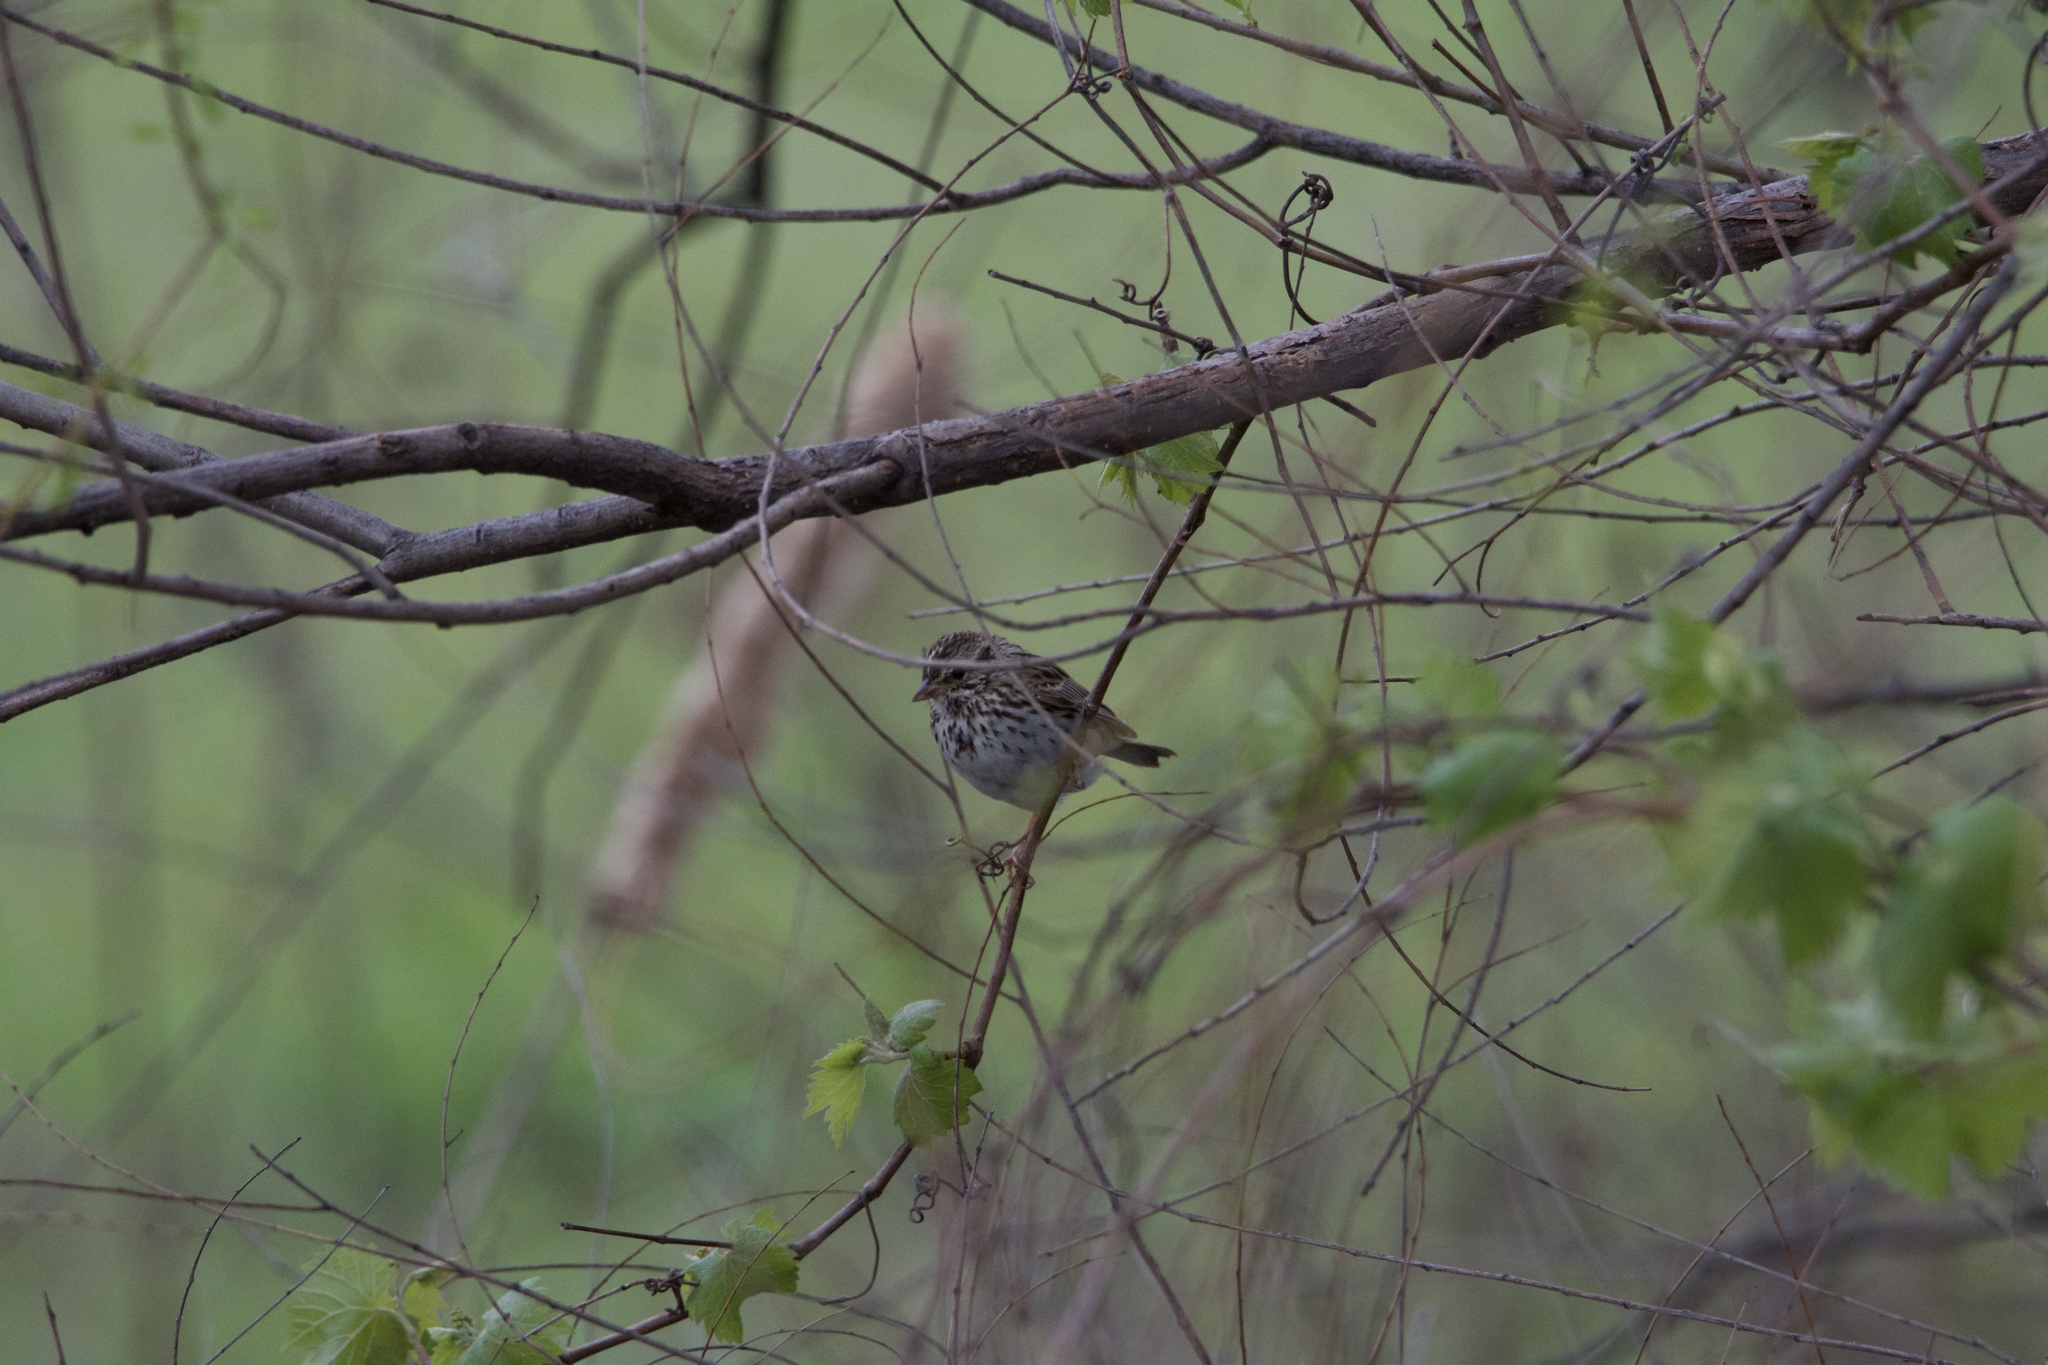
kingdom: Animalia
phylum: Chordata
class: Aves
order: Passeriformes
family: Passerellidae
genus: Passerculus
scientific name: Passerculus sandwichensis
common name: Savannah sparrow
